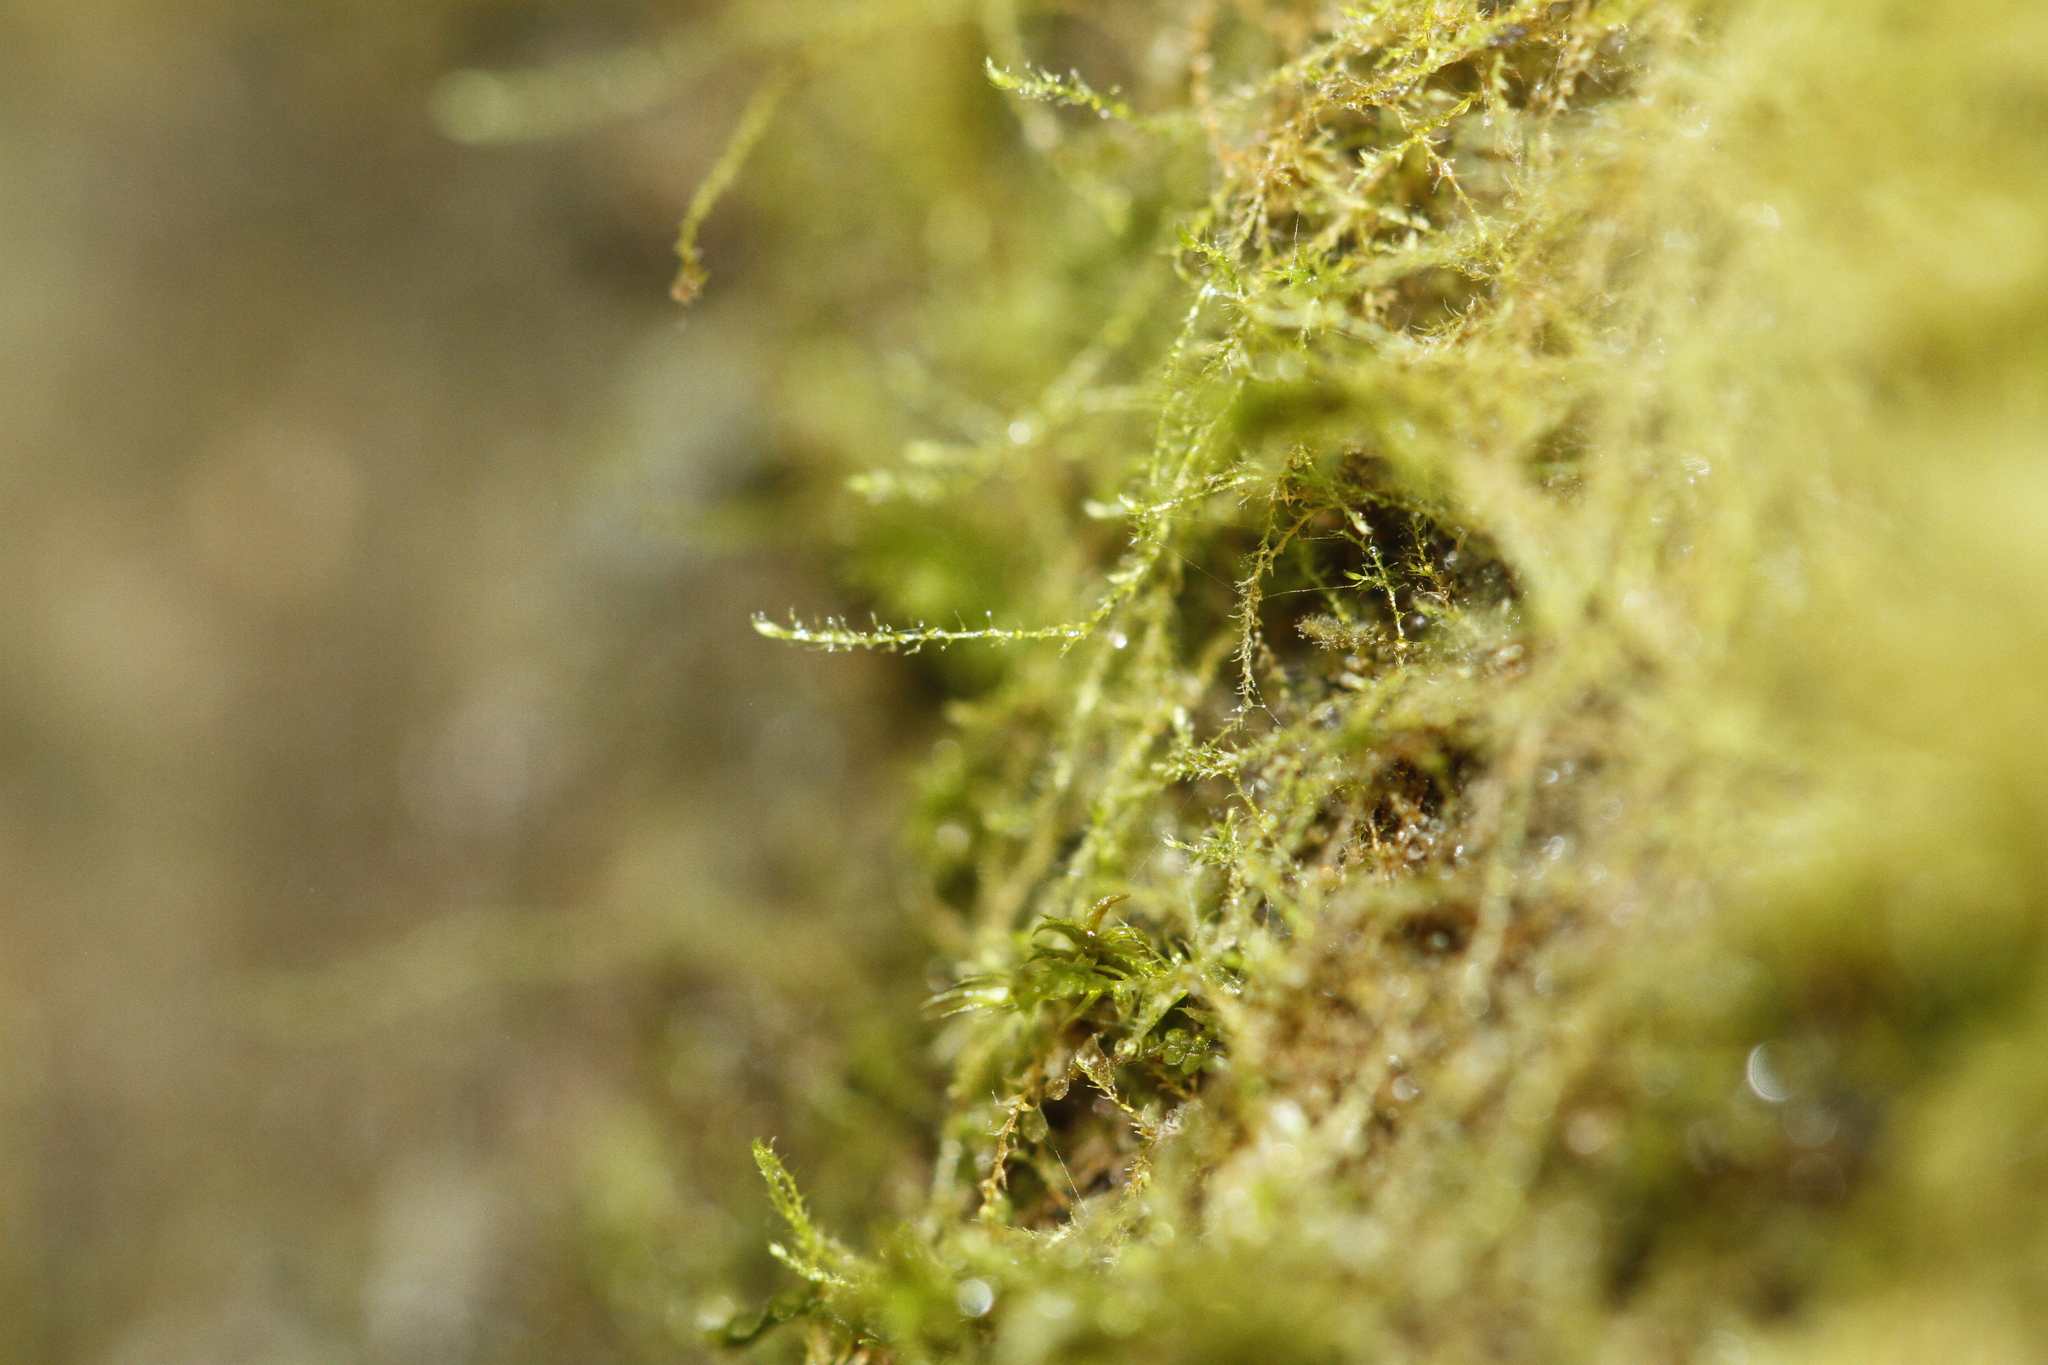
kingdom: Plantae
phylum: Bryophyta
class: Bryopsida
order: Hypnales
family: Plagiotheciaceae
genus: Platydictya
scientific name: Platydictya jungermannioides
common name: False willow moss
